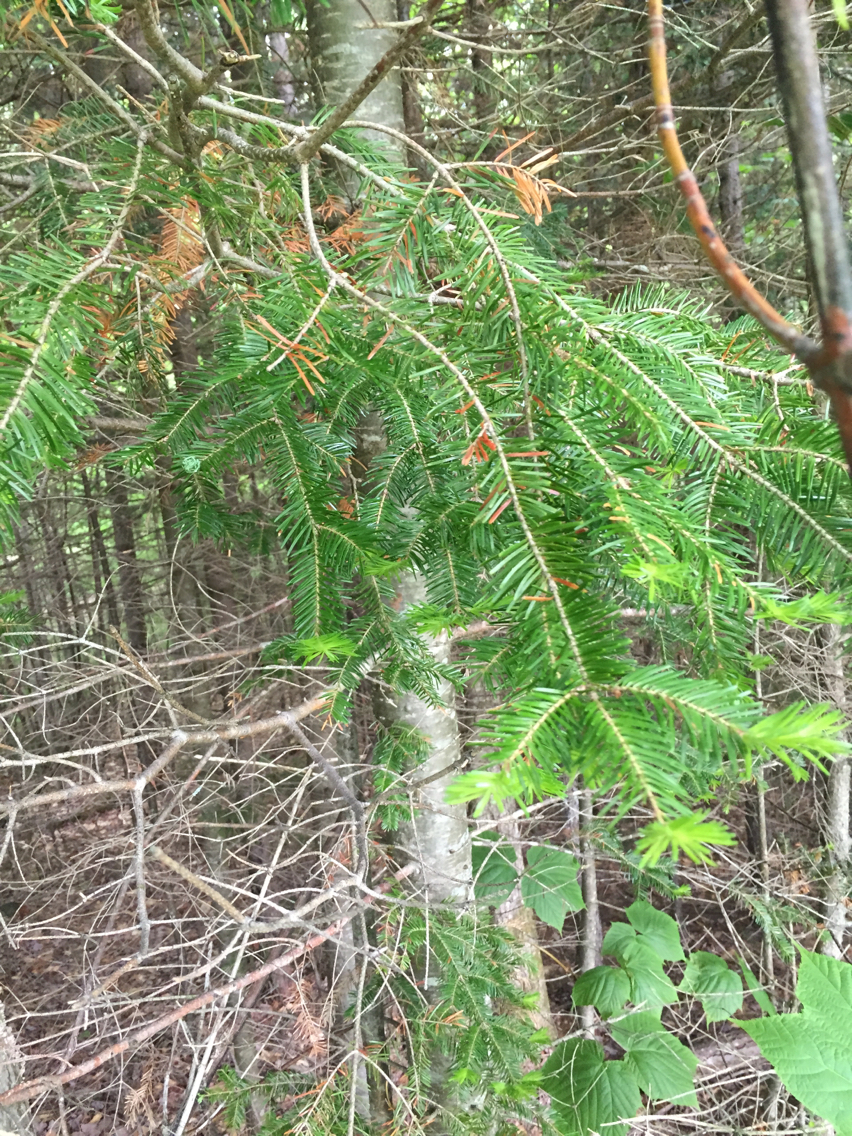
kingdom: Plantae
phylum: Tracheophyta
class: Pinopsida
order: Pinales
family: Pinaceae
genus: Abies
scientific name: Abies balsamea
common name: Balsam fir
